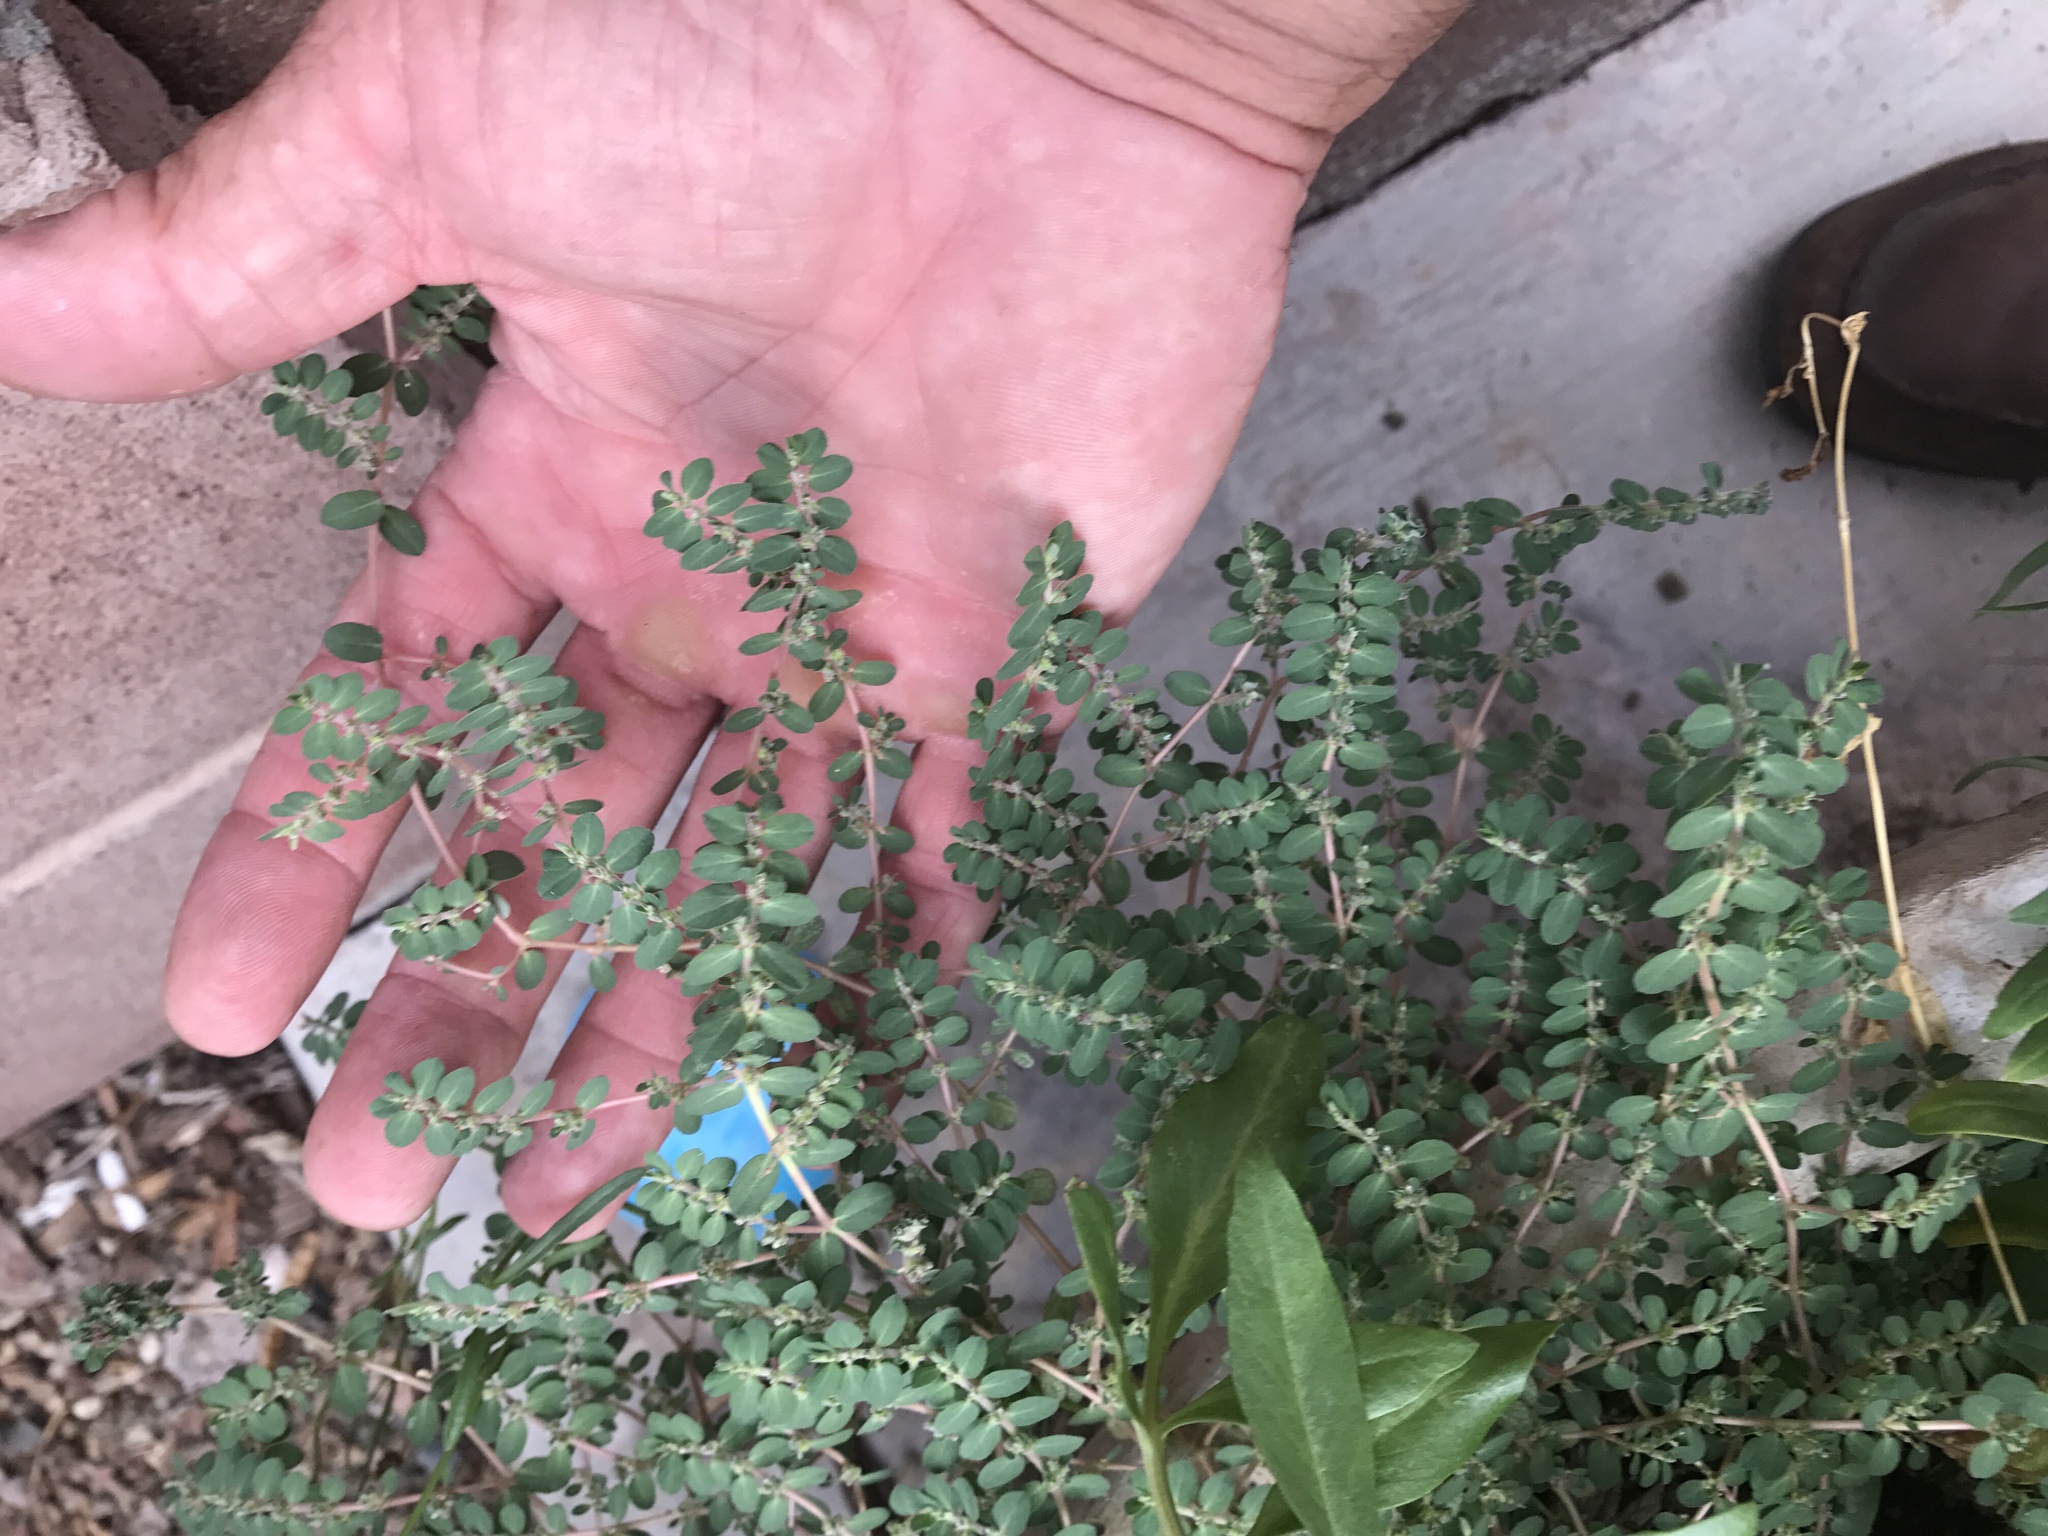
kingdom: Plantae
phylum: Tracheophyta
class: Magnoliopsida
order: Malpighiales
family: Euphorbiaceae
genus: Euphorbia
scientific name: Euphorbia prostrata
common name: Prostrate sandmat
